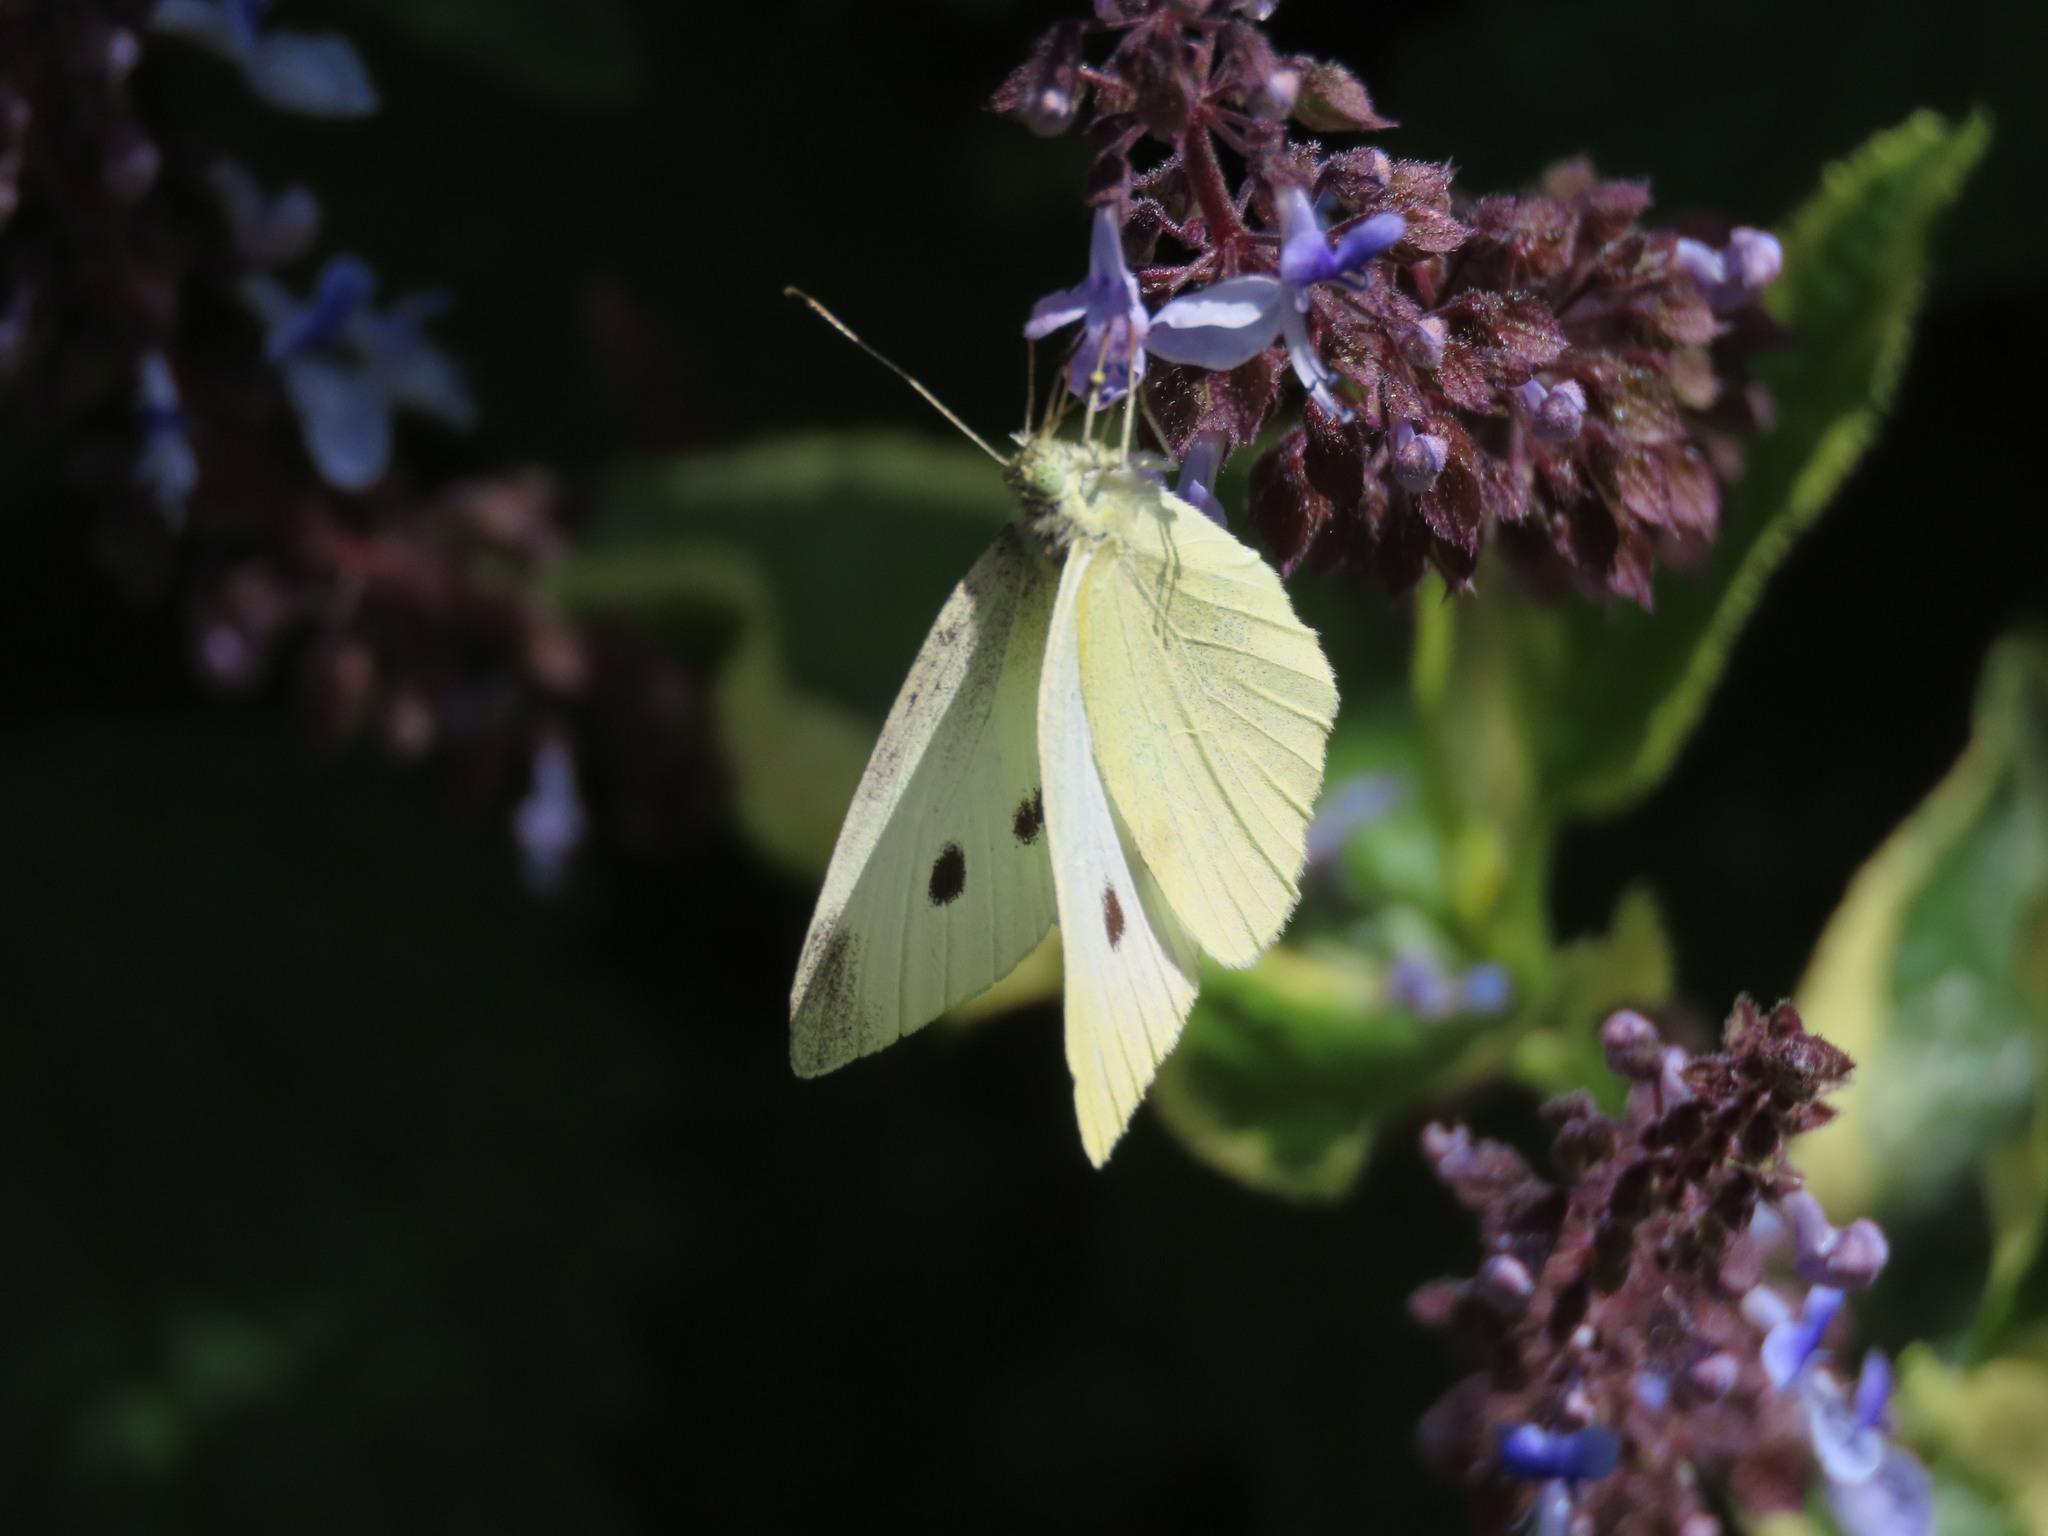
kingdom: Animalia
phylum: Arthropoda
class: Insecta
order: Lepidoptera
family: Pieridae
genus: Pieris
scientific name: Pieris rapae
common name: Small white
